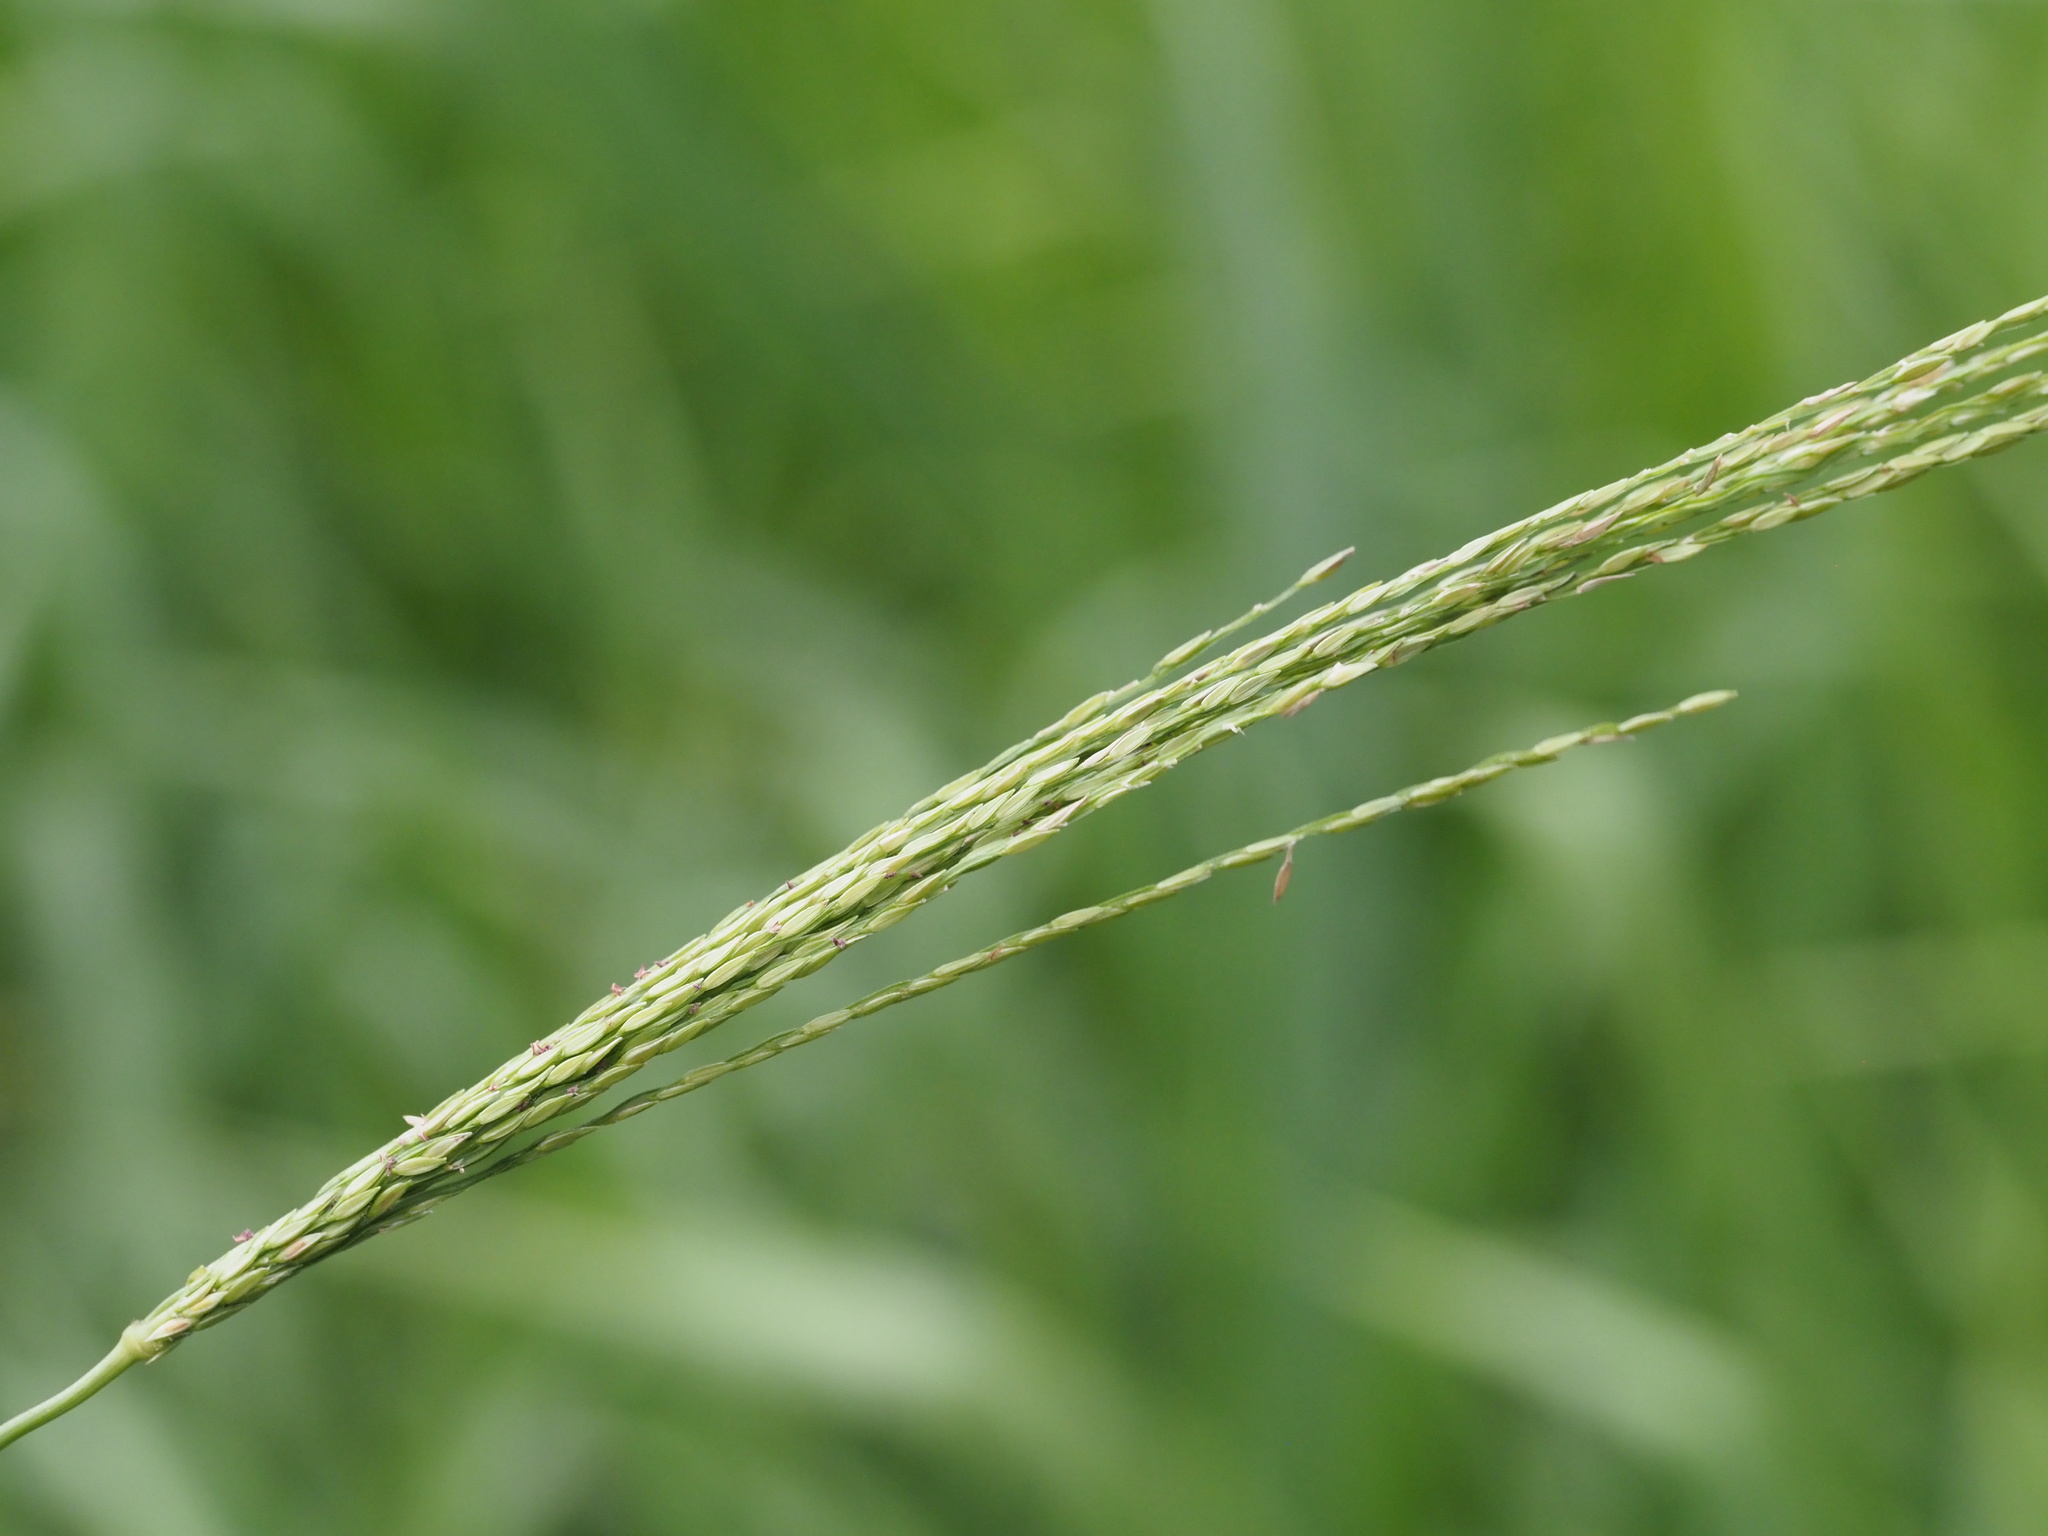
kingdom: Plantae
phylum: Tracheophyta
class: Liliopsida
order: Poales
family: Poaceae
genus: Digitaria
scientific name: Digitaria setigera
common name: East indian crabgrass
